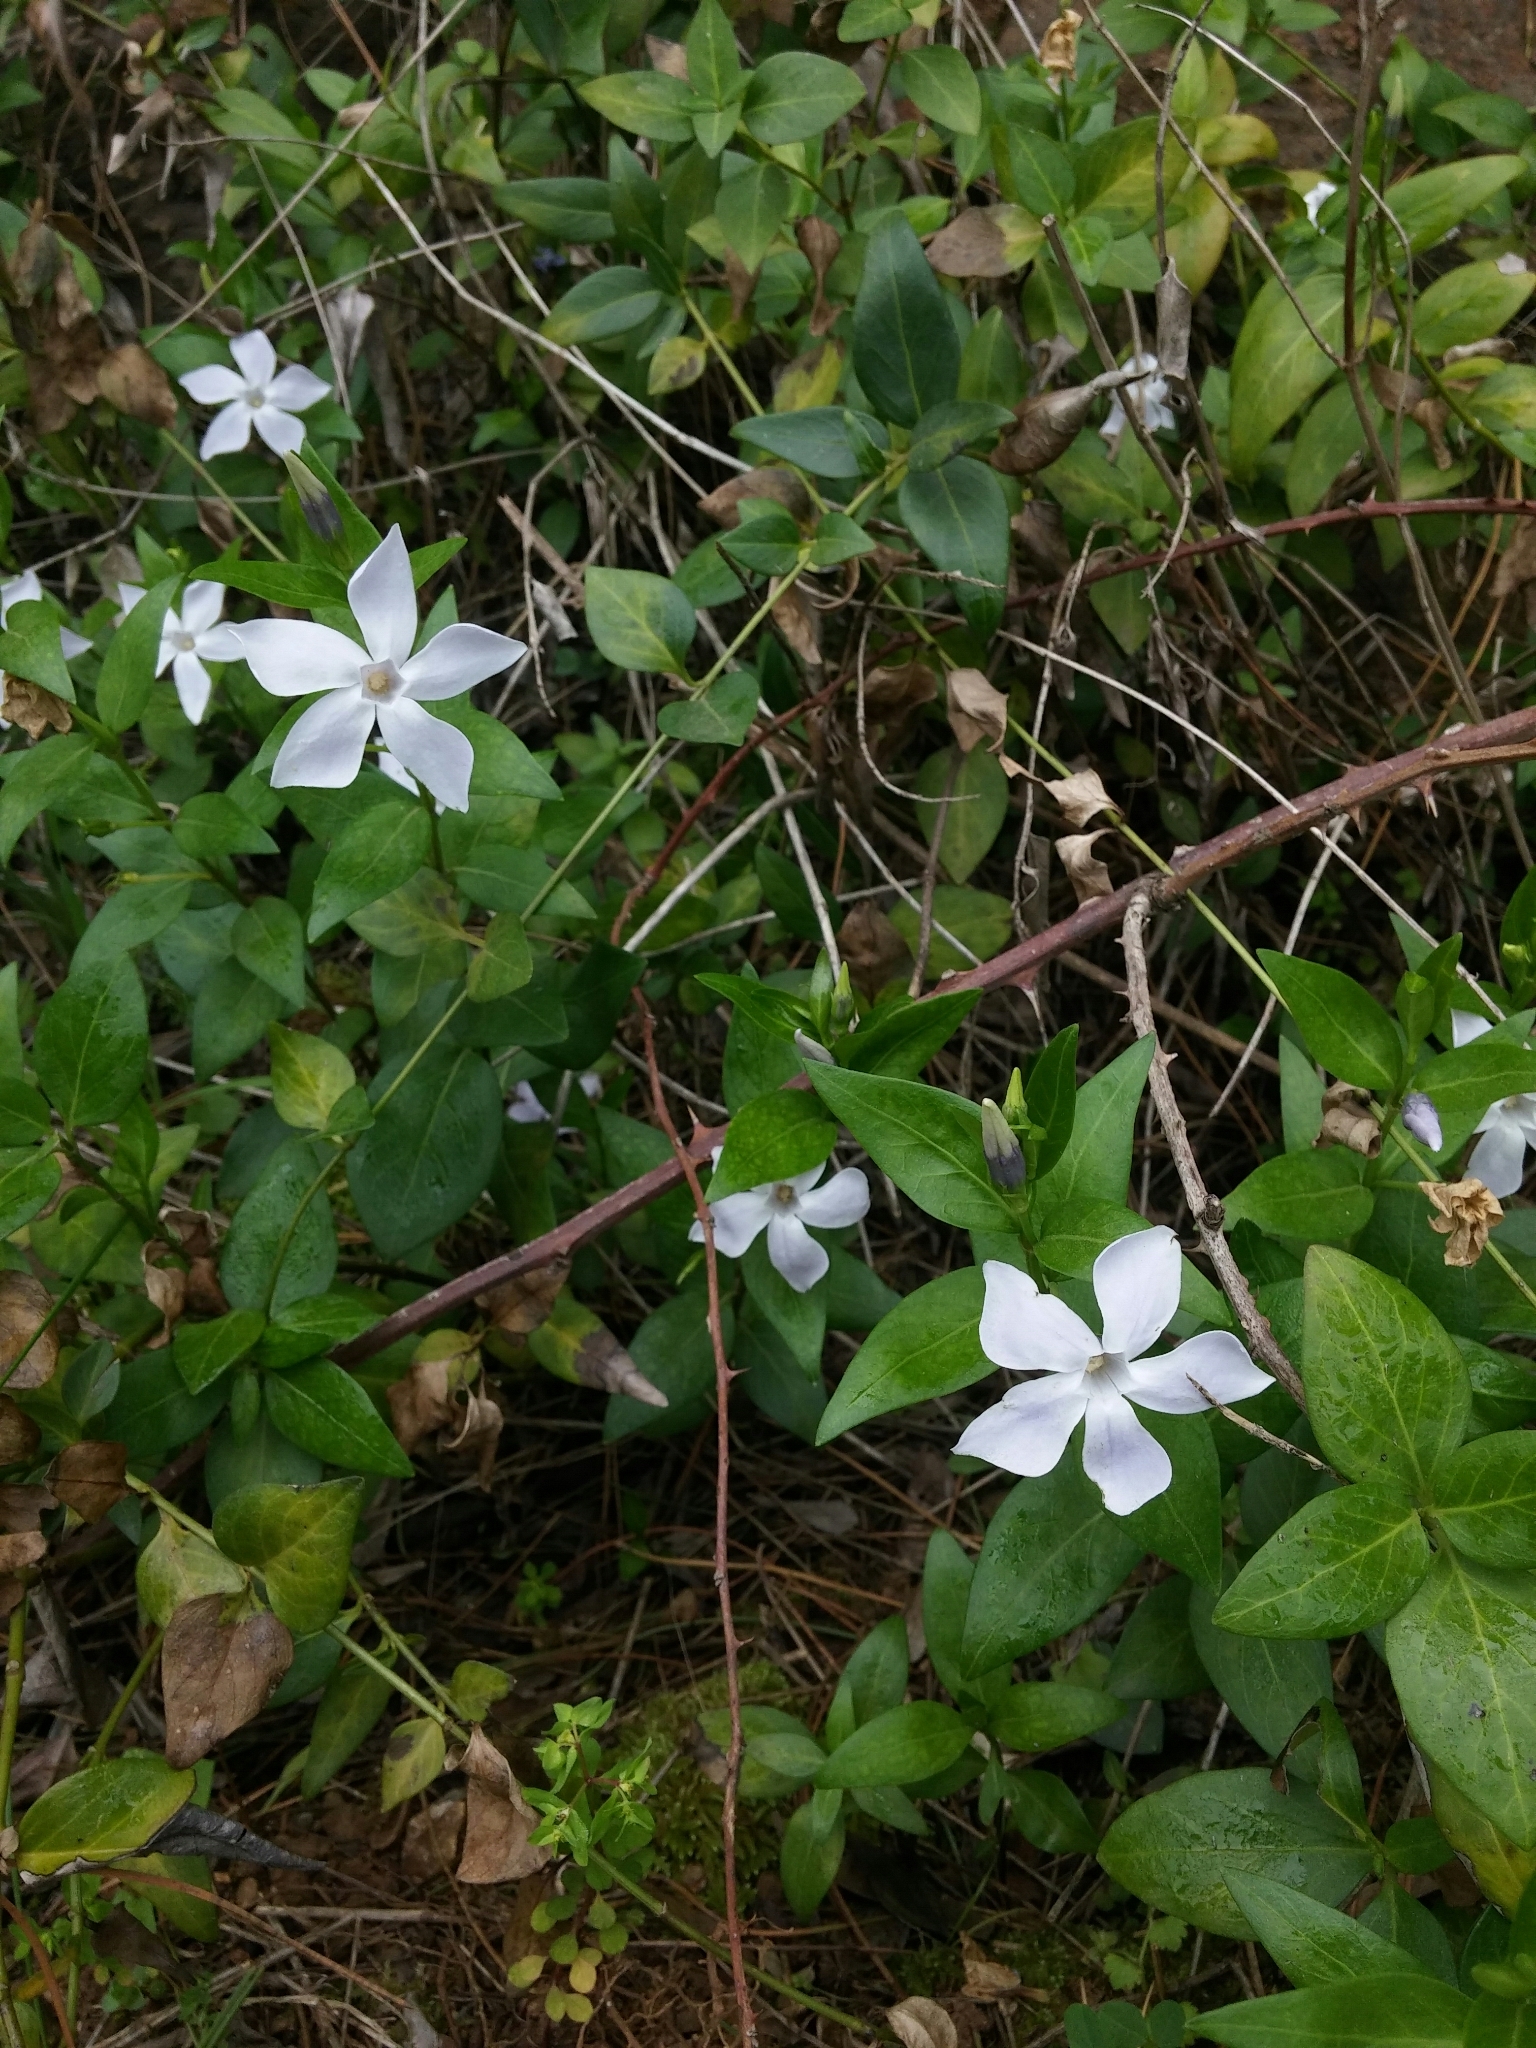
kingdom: Plantae
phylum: Tracheophyta
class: Magnoliopsida
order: Gentianales
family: Apocynaceae
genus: Vinca
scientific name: Vinca difformis
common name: Intermediate periwinkle
